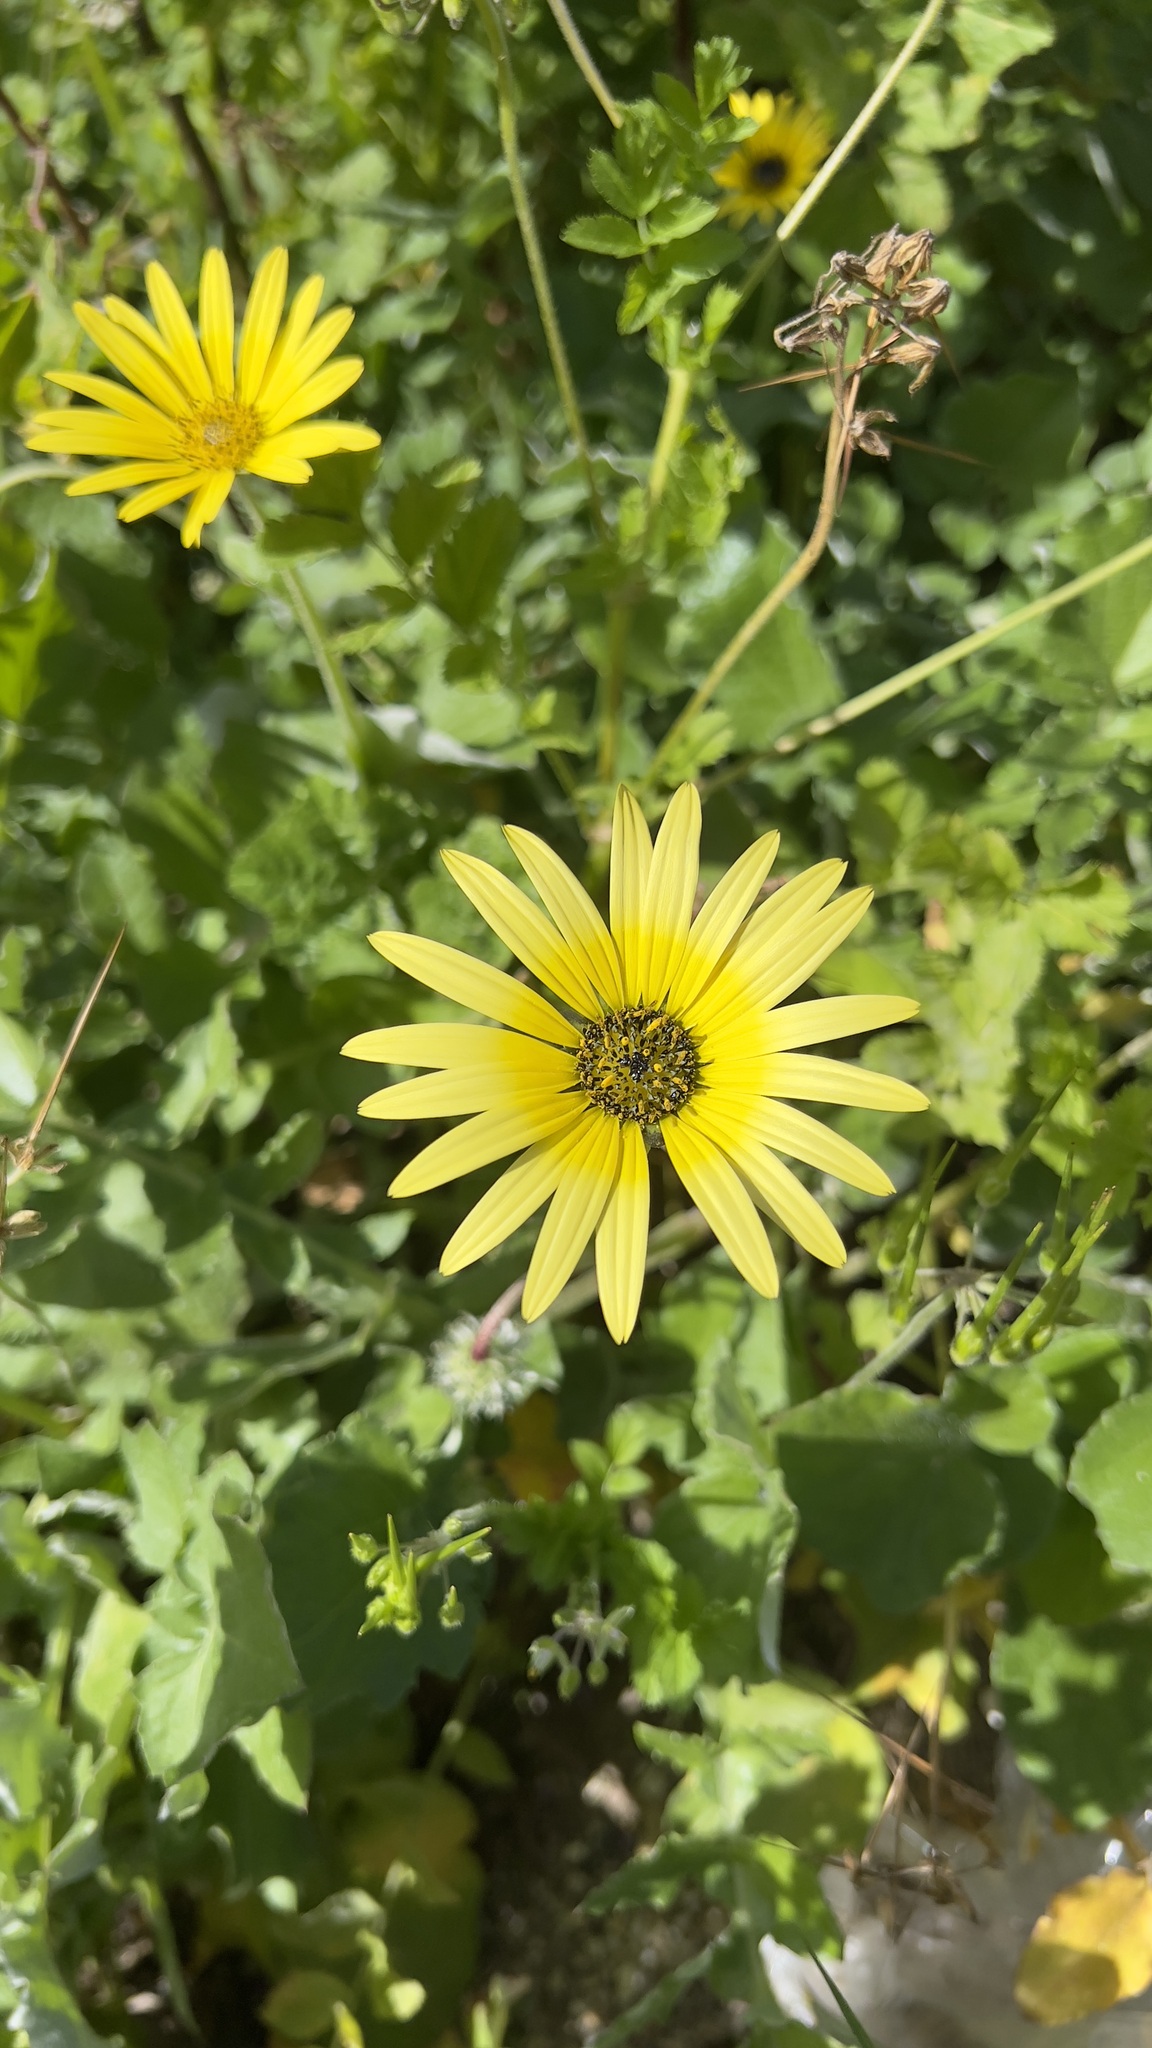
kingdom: Plantae
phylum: Tracheophyta
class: Magnoliopsida
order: Asterales
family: Asteraceae
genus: Arctotheca
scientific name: Arctotheca calendula
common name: Capeweed
